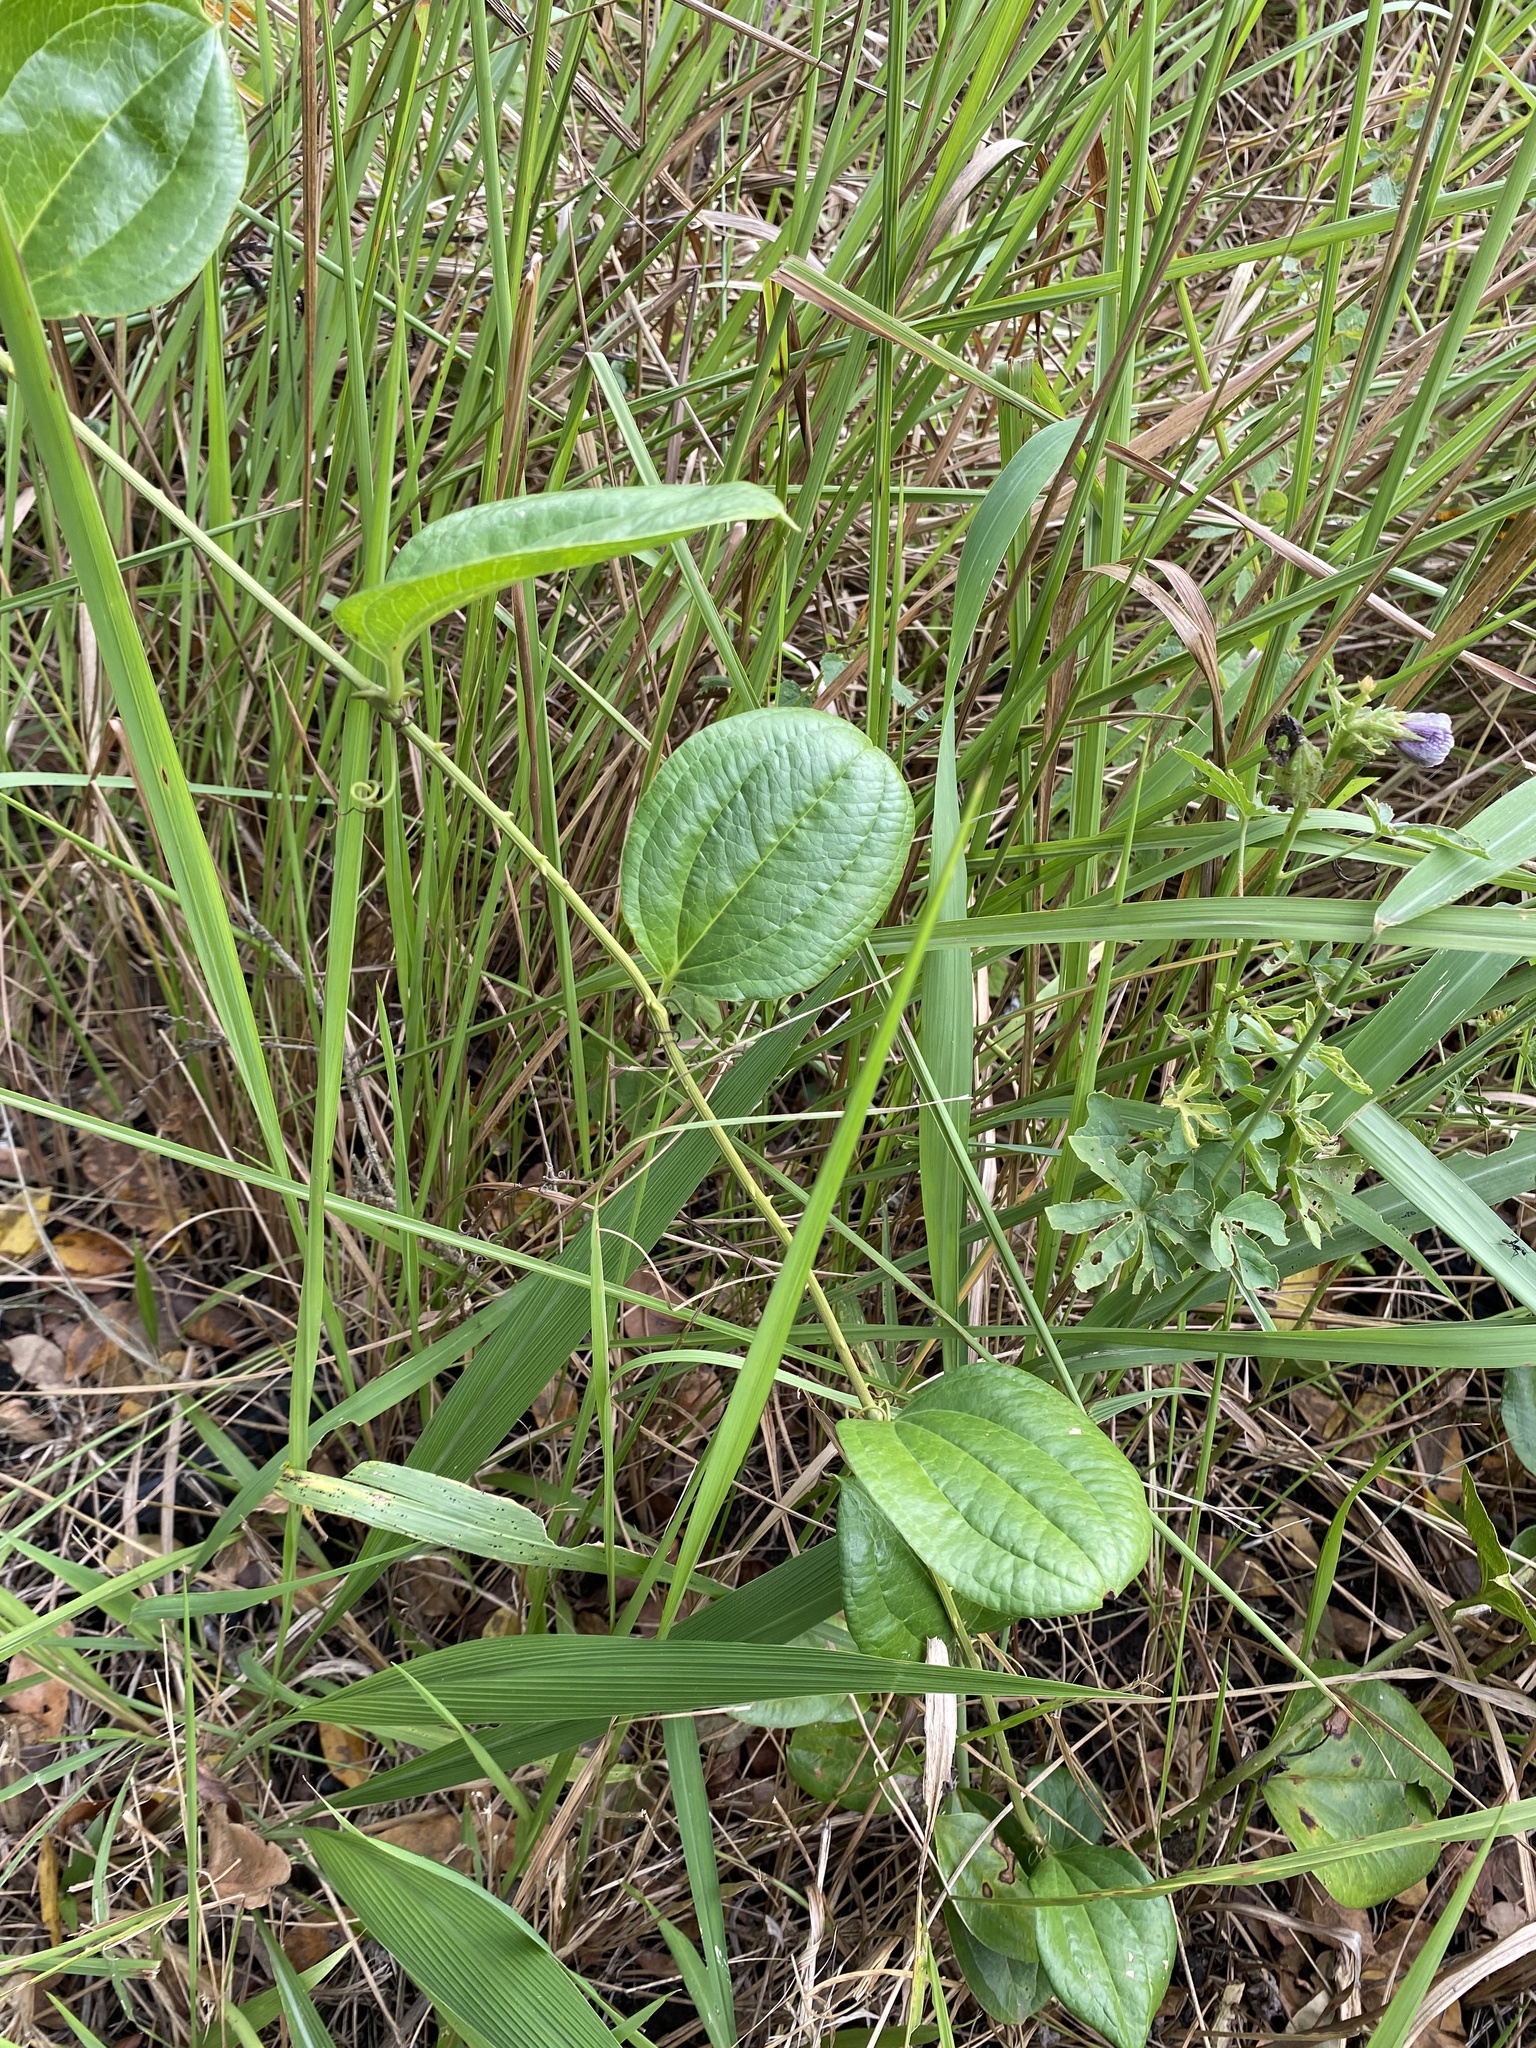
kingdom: Plantae
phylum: Tracheophyta
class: Liliopsida
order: Liliales
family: Smilacaceae
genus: Smilax
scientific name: Smilax anceps
